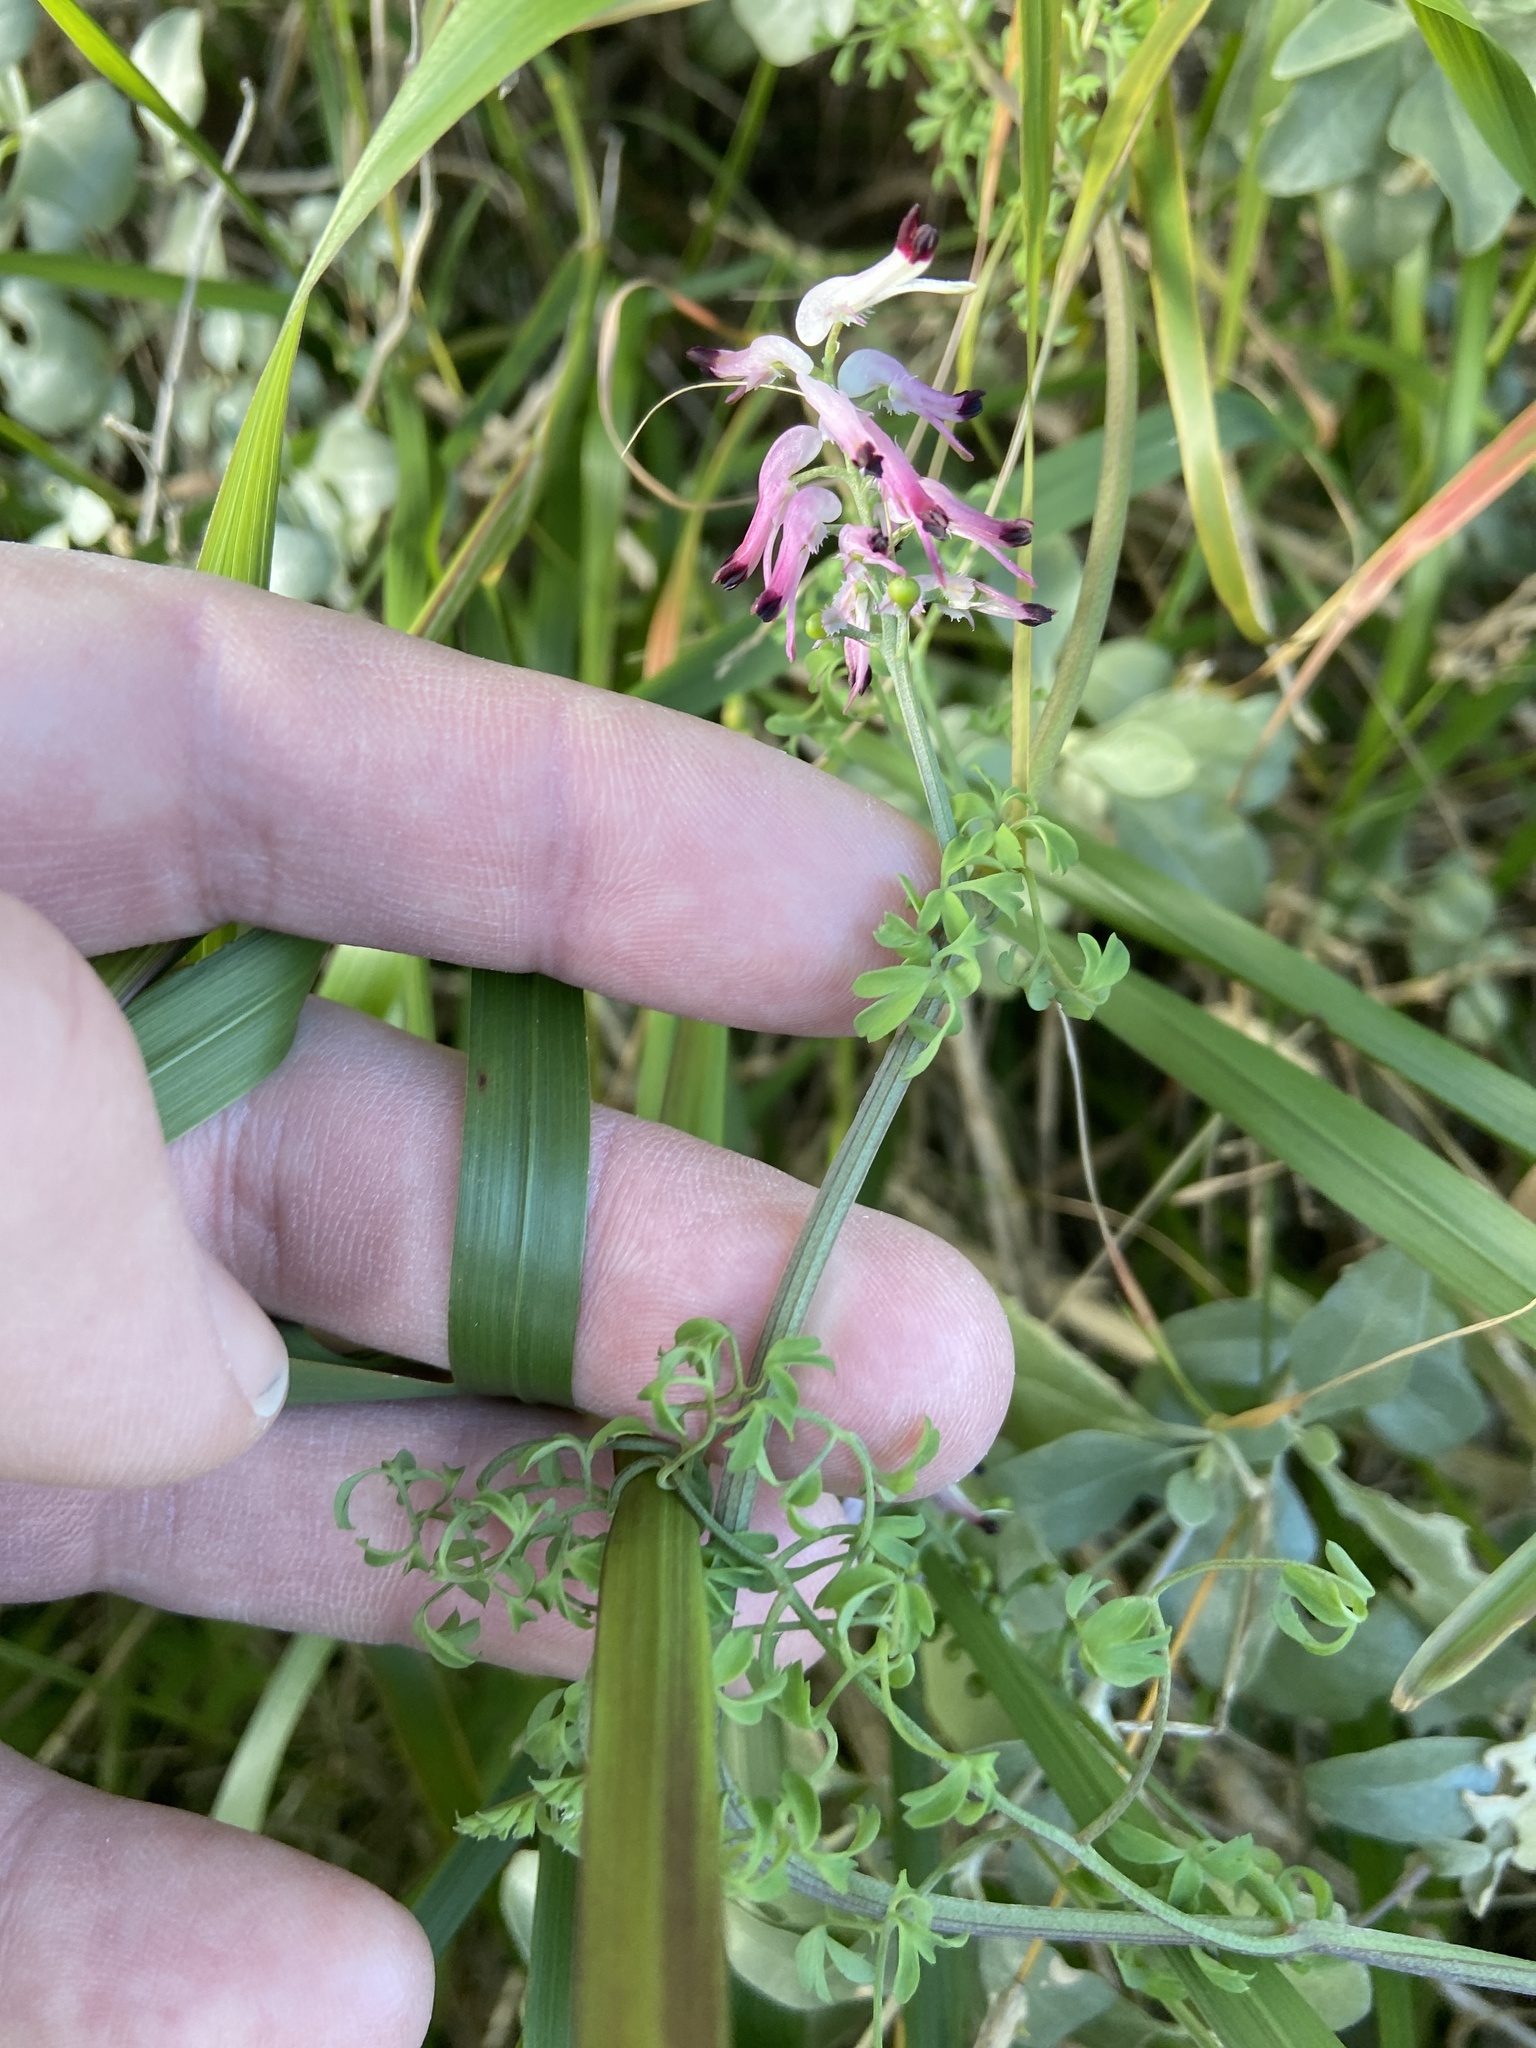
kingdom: Plantae
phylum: Tracheophyta
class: Magnoliopsida
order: Ranunculales
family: Papaveraceae
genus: Fumaria
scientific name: Fumaria capreolata
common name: White ramping-fumitory
